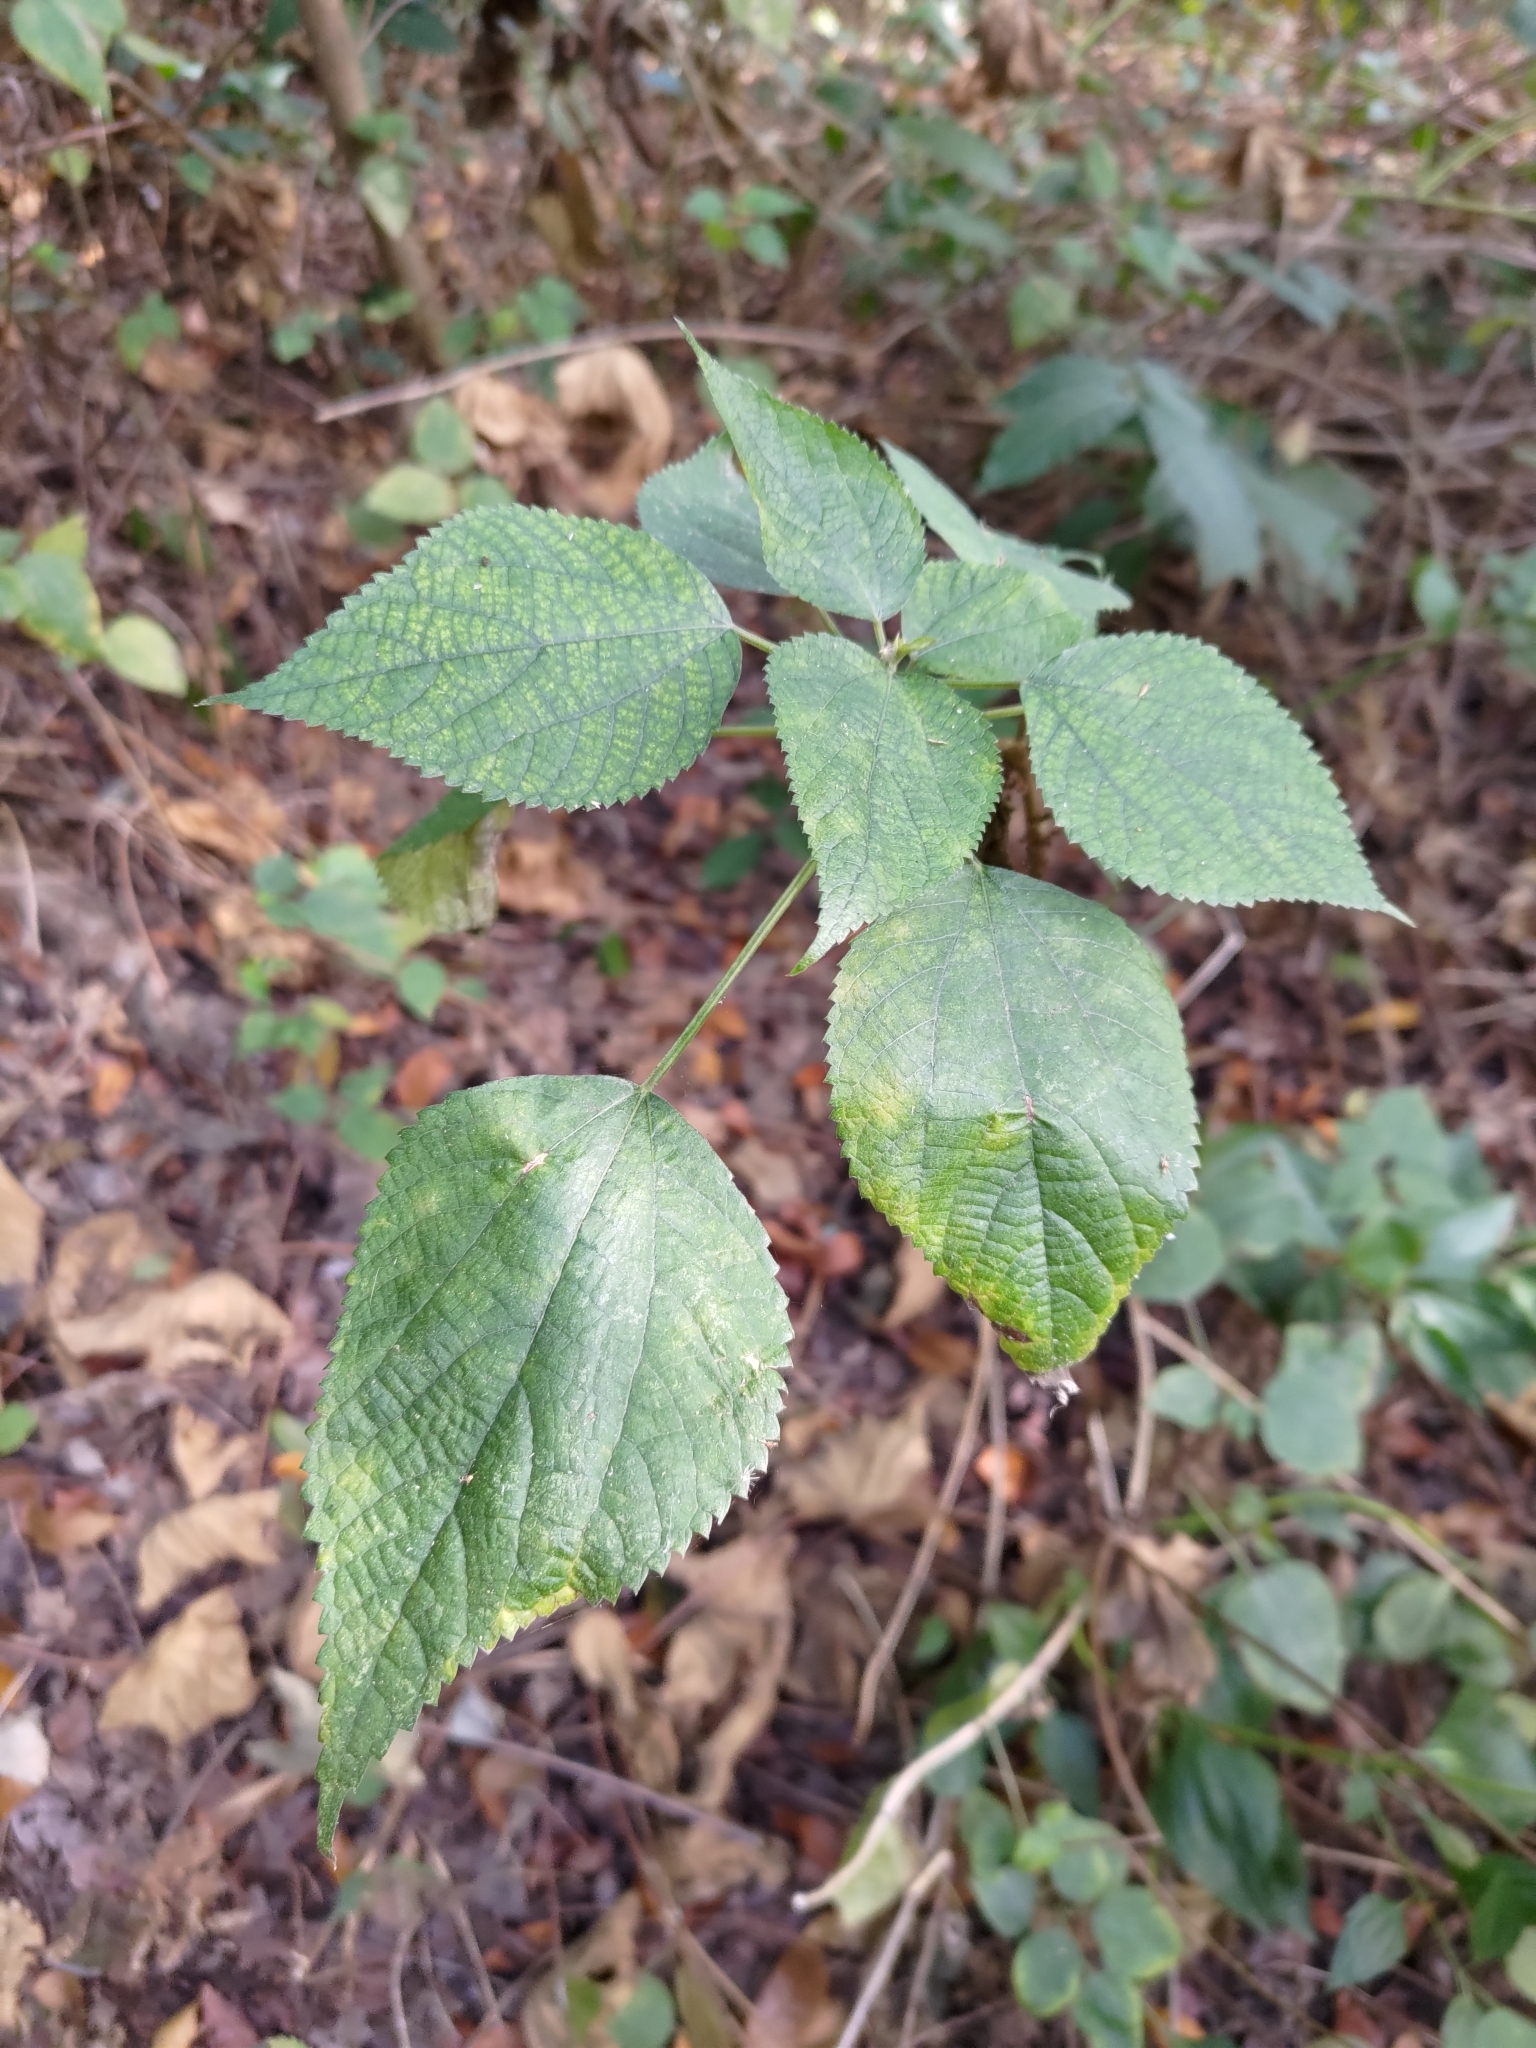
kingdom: Plantae
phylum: Tracheophyta
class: Magnoliopsida
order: Rosales
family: Urticaceae
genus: Boehmeria
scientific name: Boehmeria nivea
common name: Ramie chinese grass
